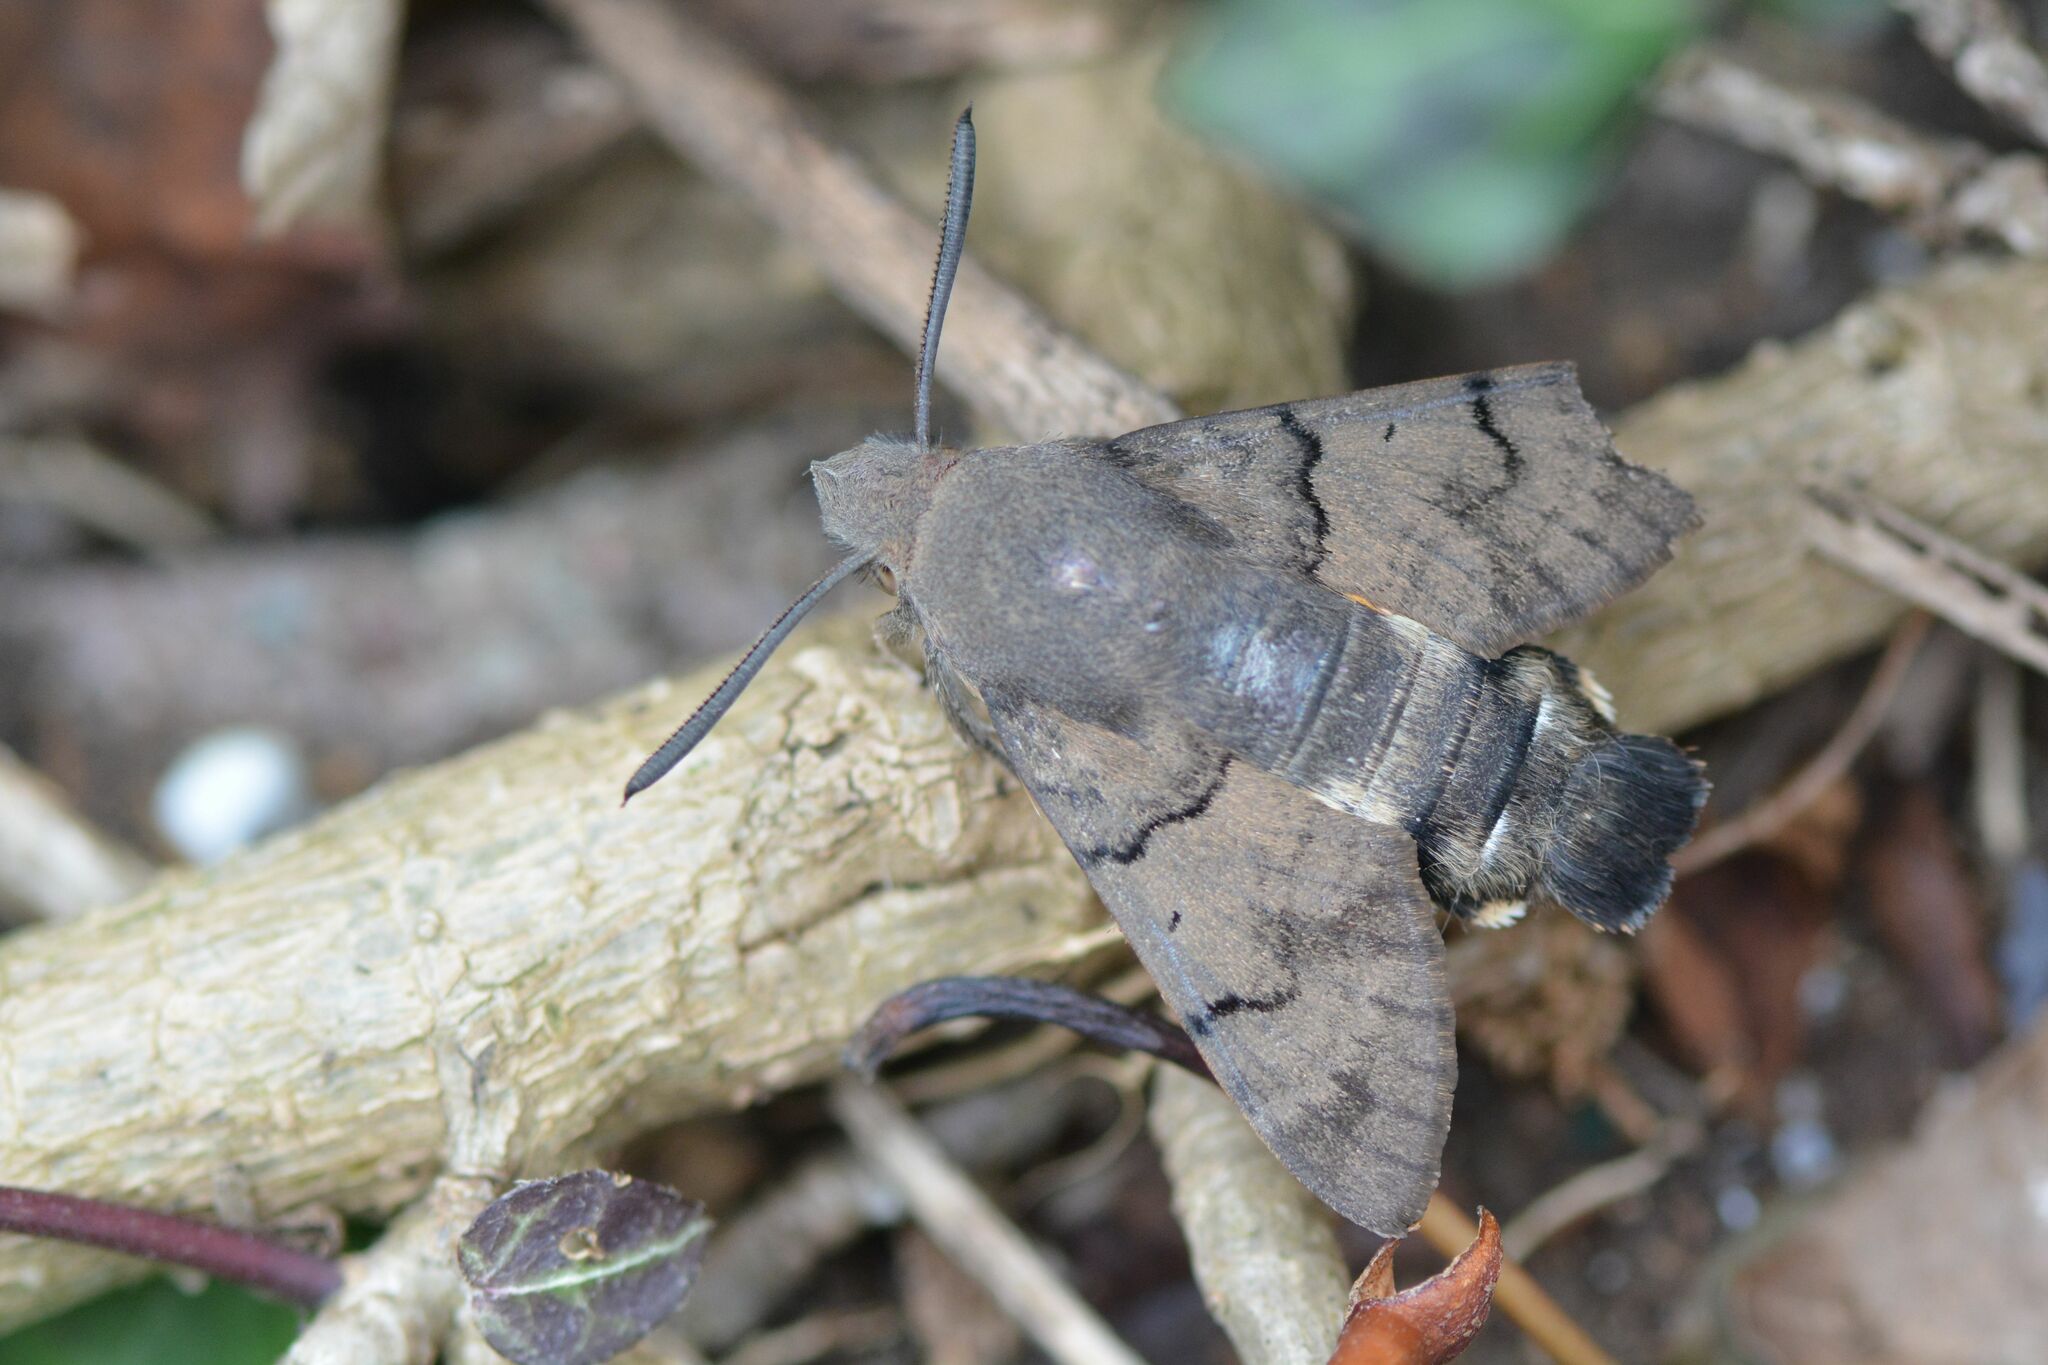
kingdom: Animalia
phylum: Arthropoda
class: Insecta
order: Lepidoptera
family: Sphingidae
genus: Macroglossum
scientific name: Macroglossum stellatarum
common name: Humming-bird hawk-moth
